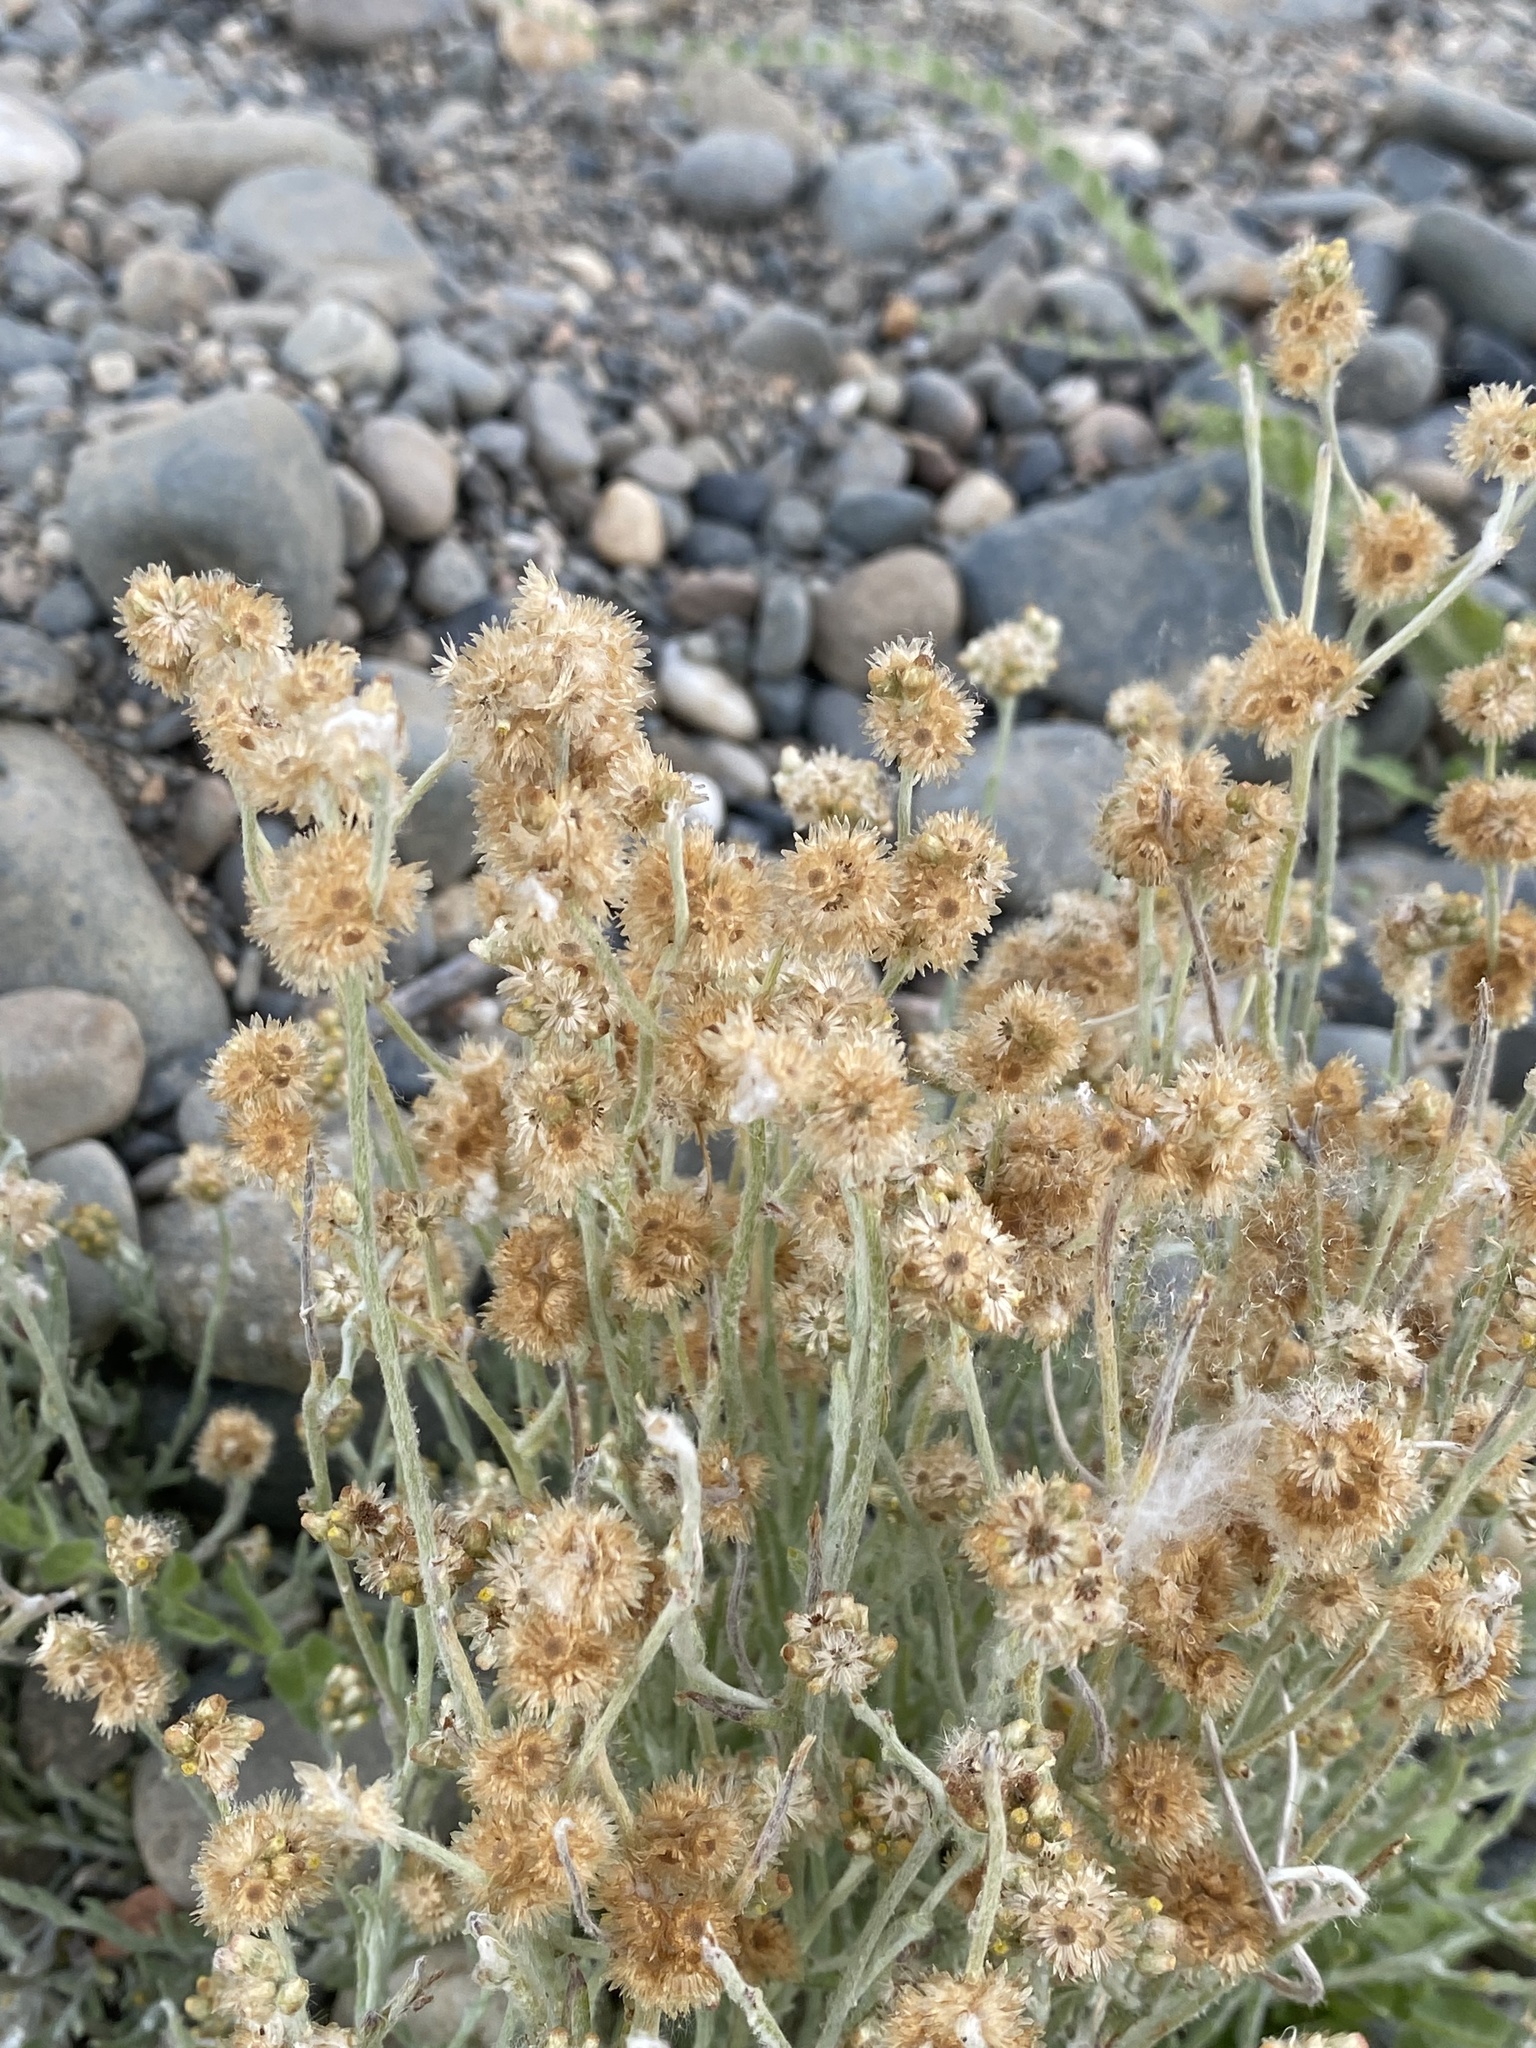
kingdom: Plantae
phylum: Tracheophyta
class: Magnoliopsida
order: Asterales
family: Asteraceae
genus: Helichrysum
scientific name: Helichrysum luteoalbum
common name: Daisy
